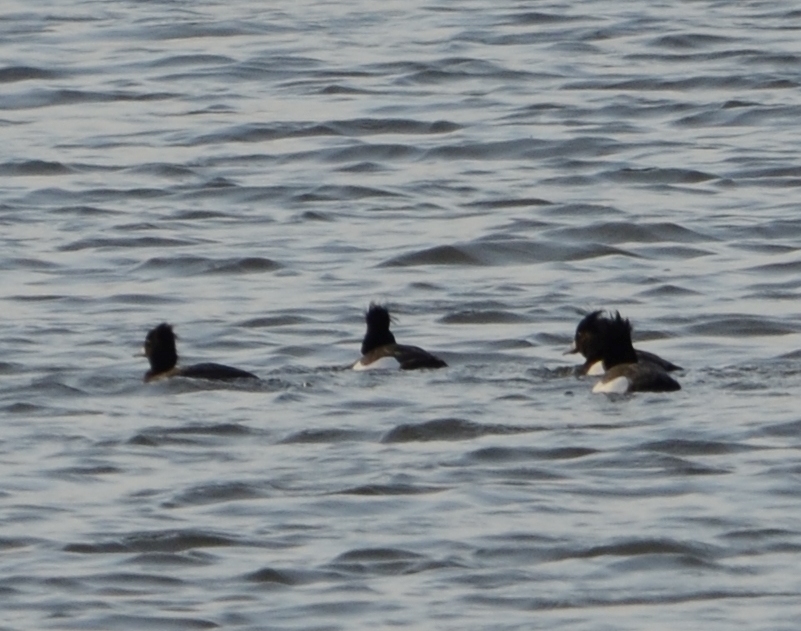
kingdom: Animalia
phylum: Chordata
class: Aves
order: Anseriformes
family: Anatidae
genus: Aythya
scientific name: Aythya fuligula
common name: Tufted duck
